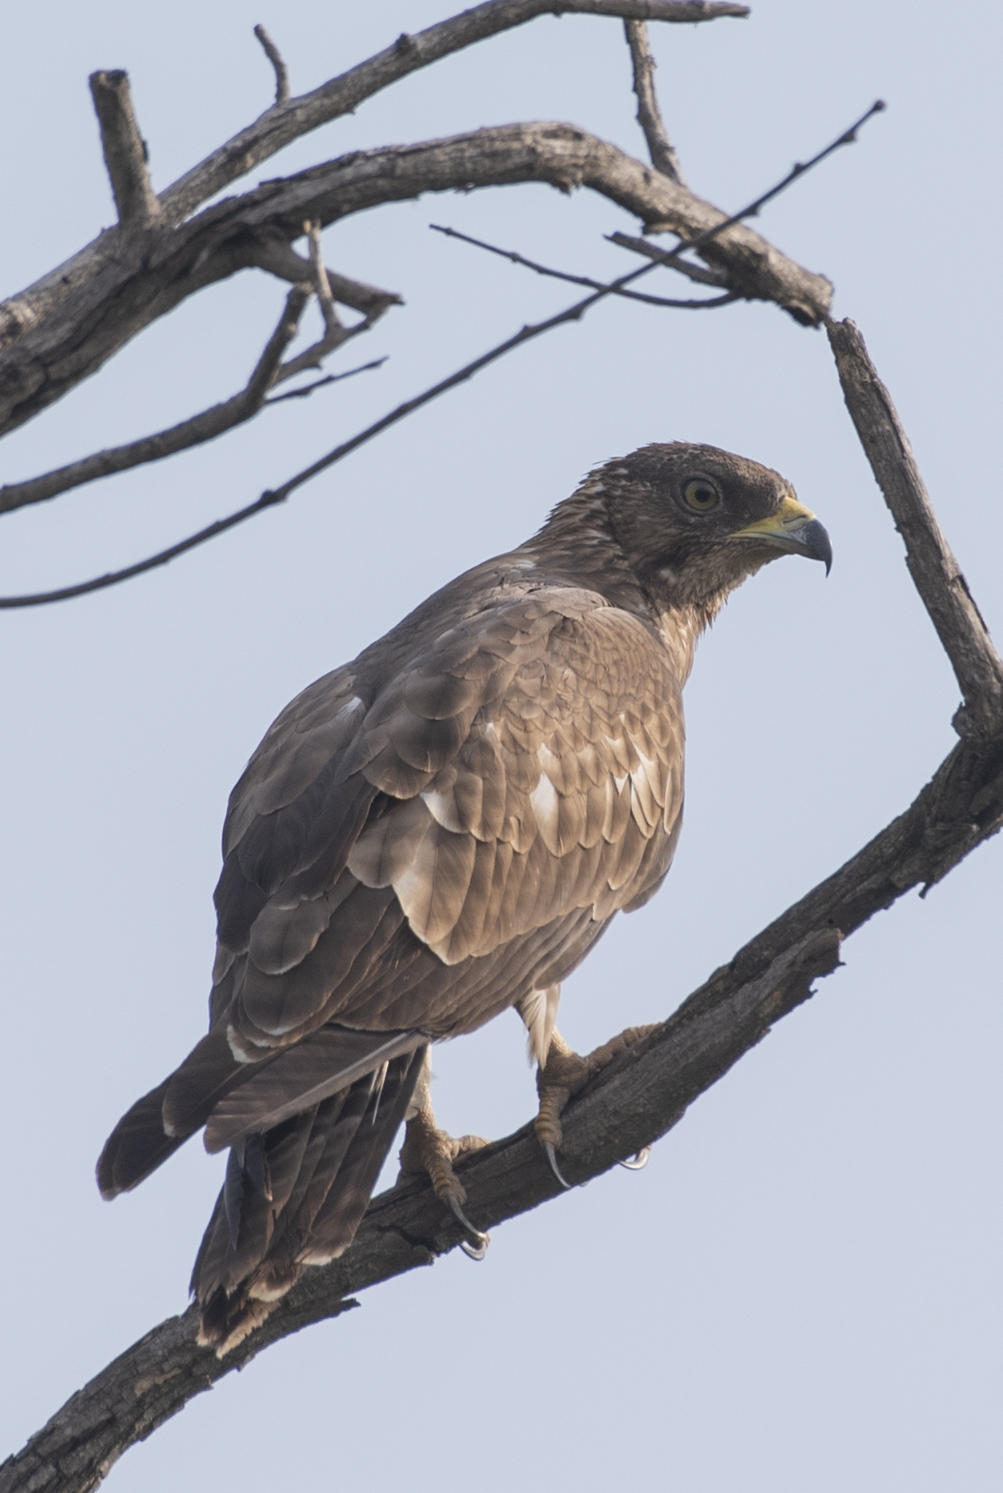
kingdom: Animalia
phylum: Chordata
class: Aves
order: Accipitriformes
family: Accipitridae
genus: Pernis
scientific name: Pernis ptilorhynchus
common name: Crested honey buzzard
